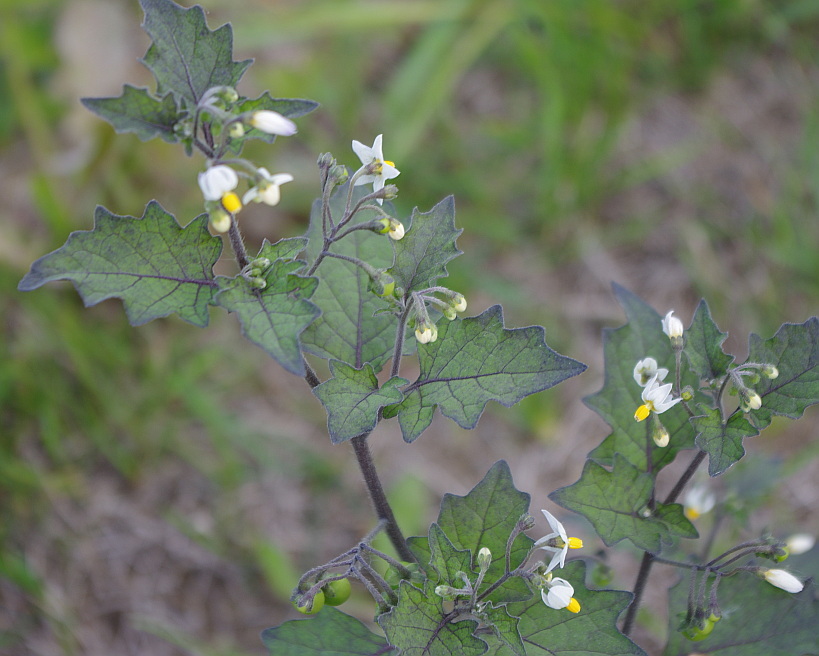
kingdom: Plantae
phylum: Tracheophyta
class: Magnoliopsida
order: Solanales
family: Solanaceae
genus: Solanum
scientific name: Solanum nigrum
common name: Black nightshade
